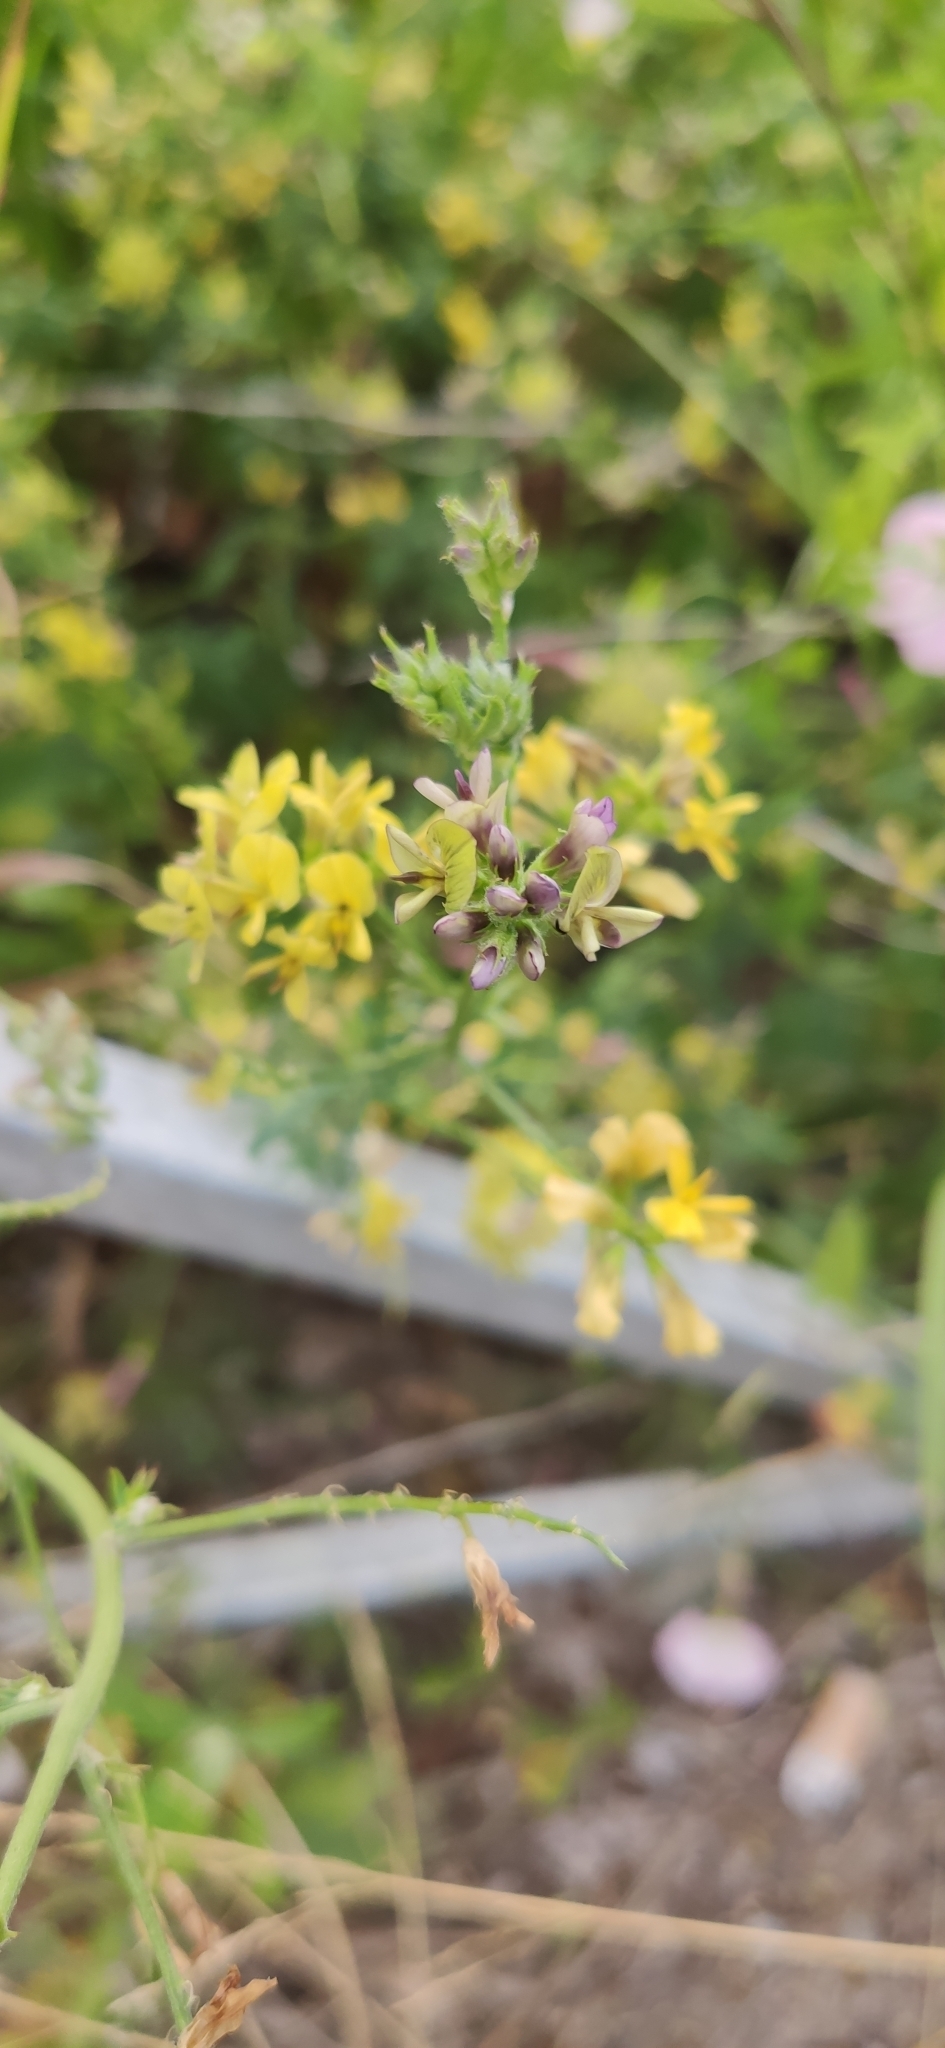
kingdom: Plantae
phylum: Tracheophyta
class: Magnoliopsida
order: Fabales
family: Fabaceae
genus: Medicago
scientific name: Medicago varia
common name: Sand lucerne
